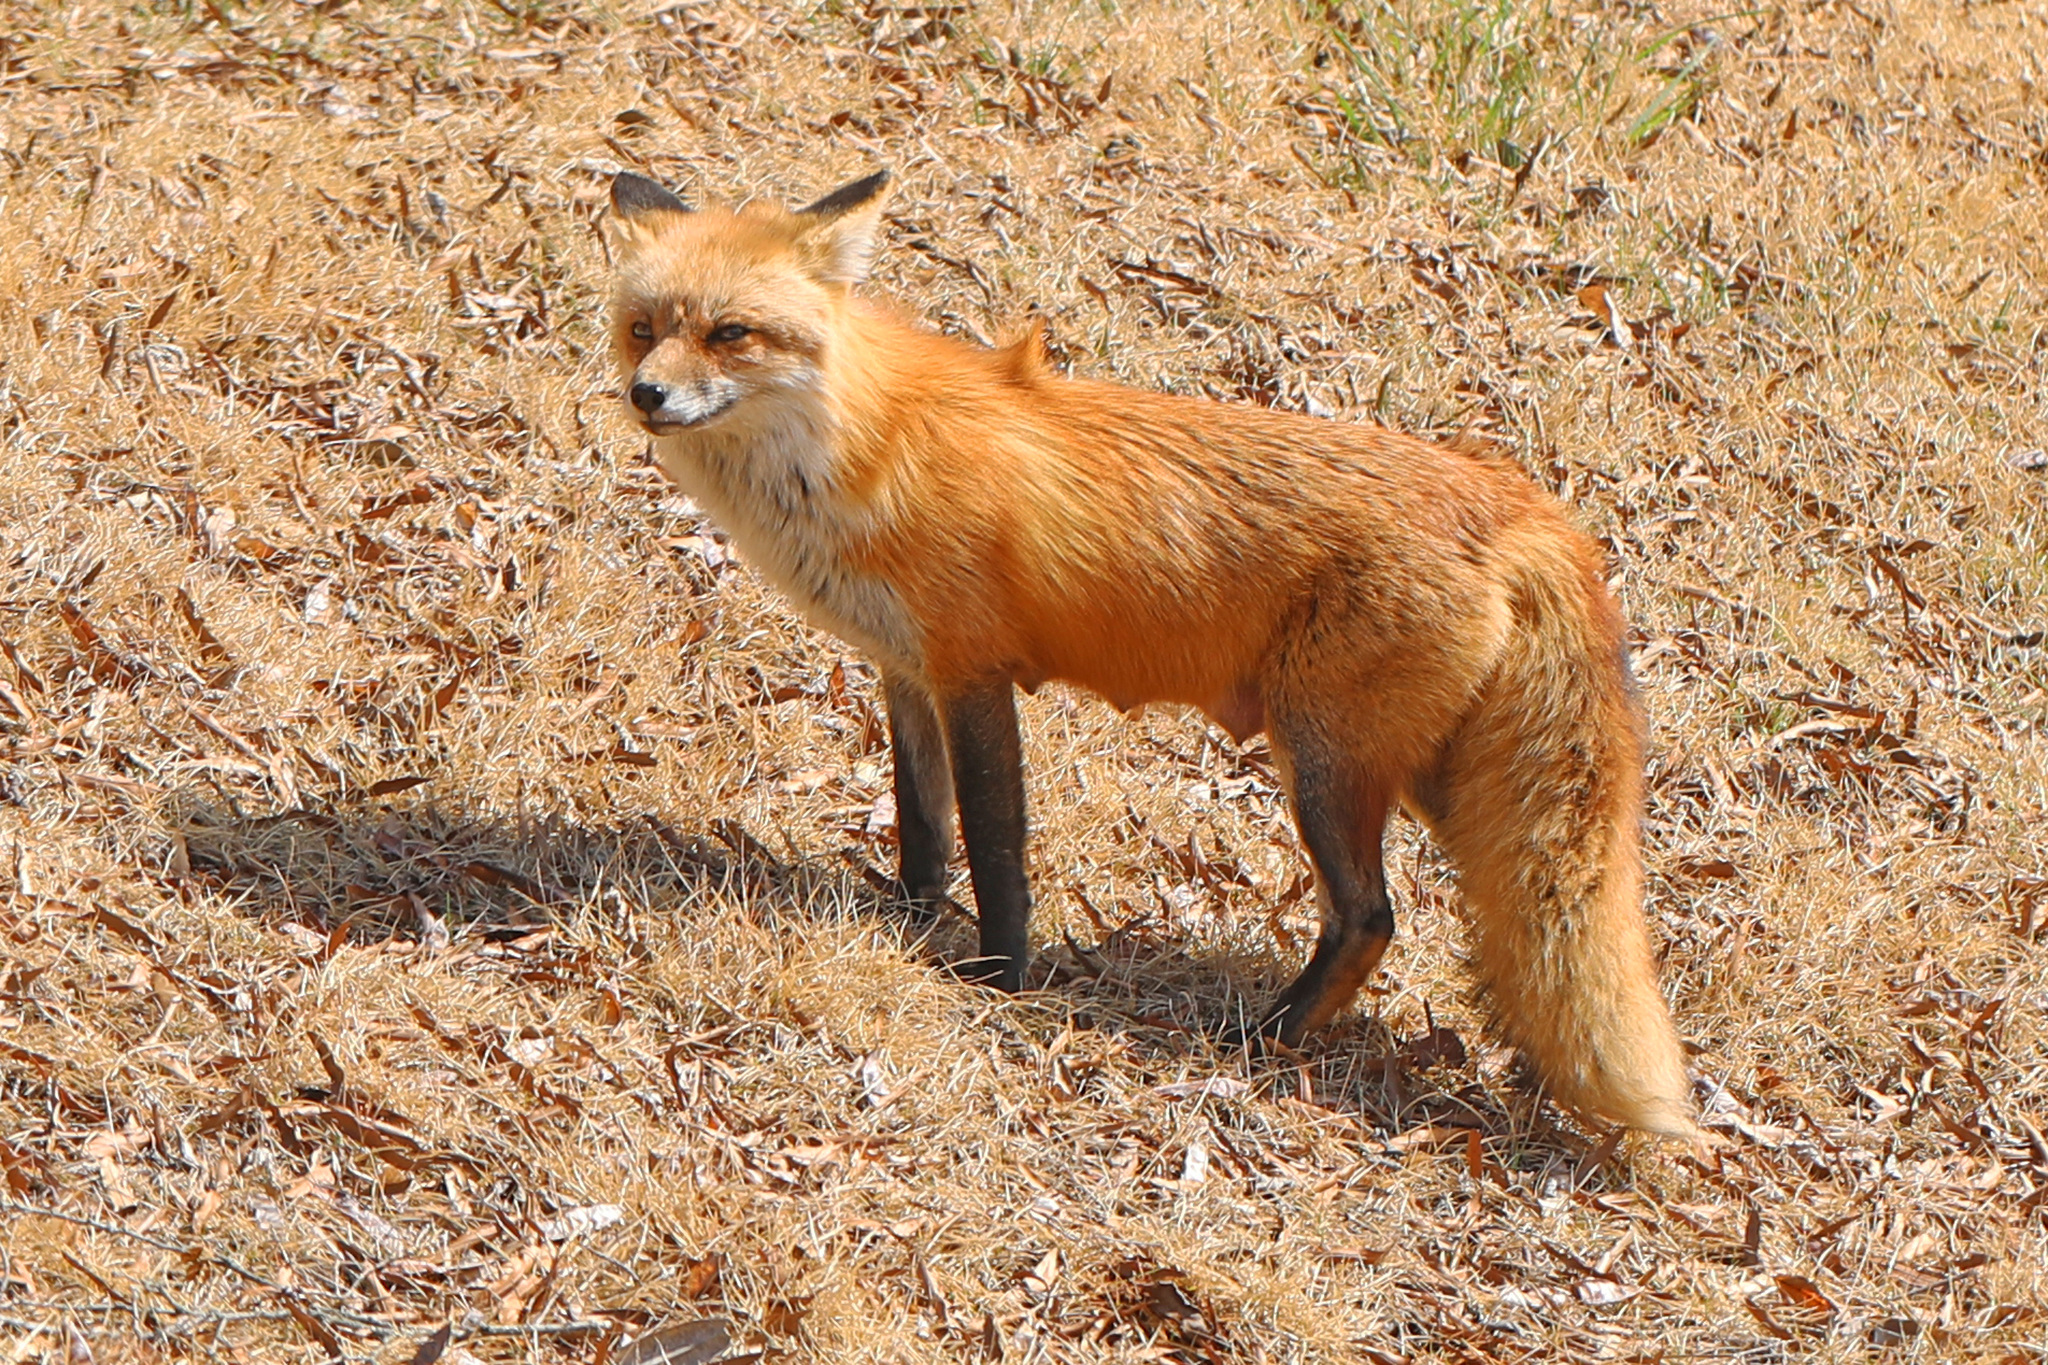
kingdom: Animalia
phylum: Chordata
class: Mammalia
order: Carnivora
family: Canidae
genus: Vulpes
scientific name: Vulpes vulpes
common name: Red fox
